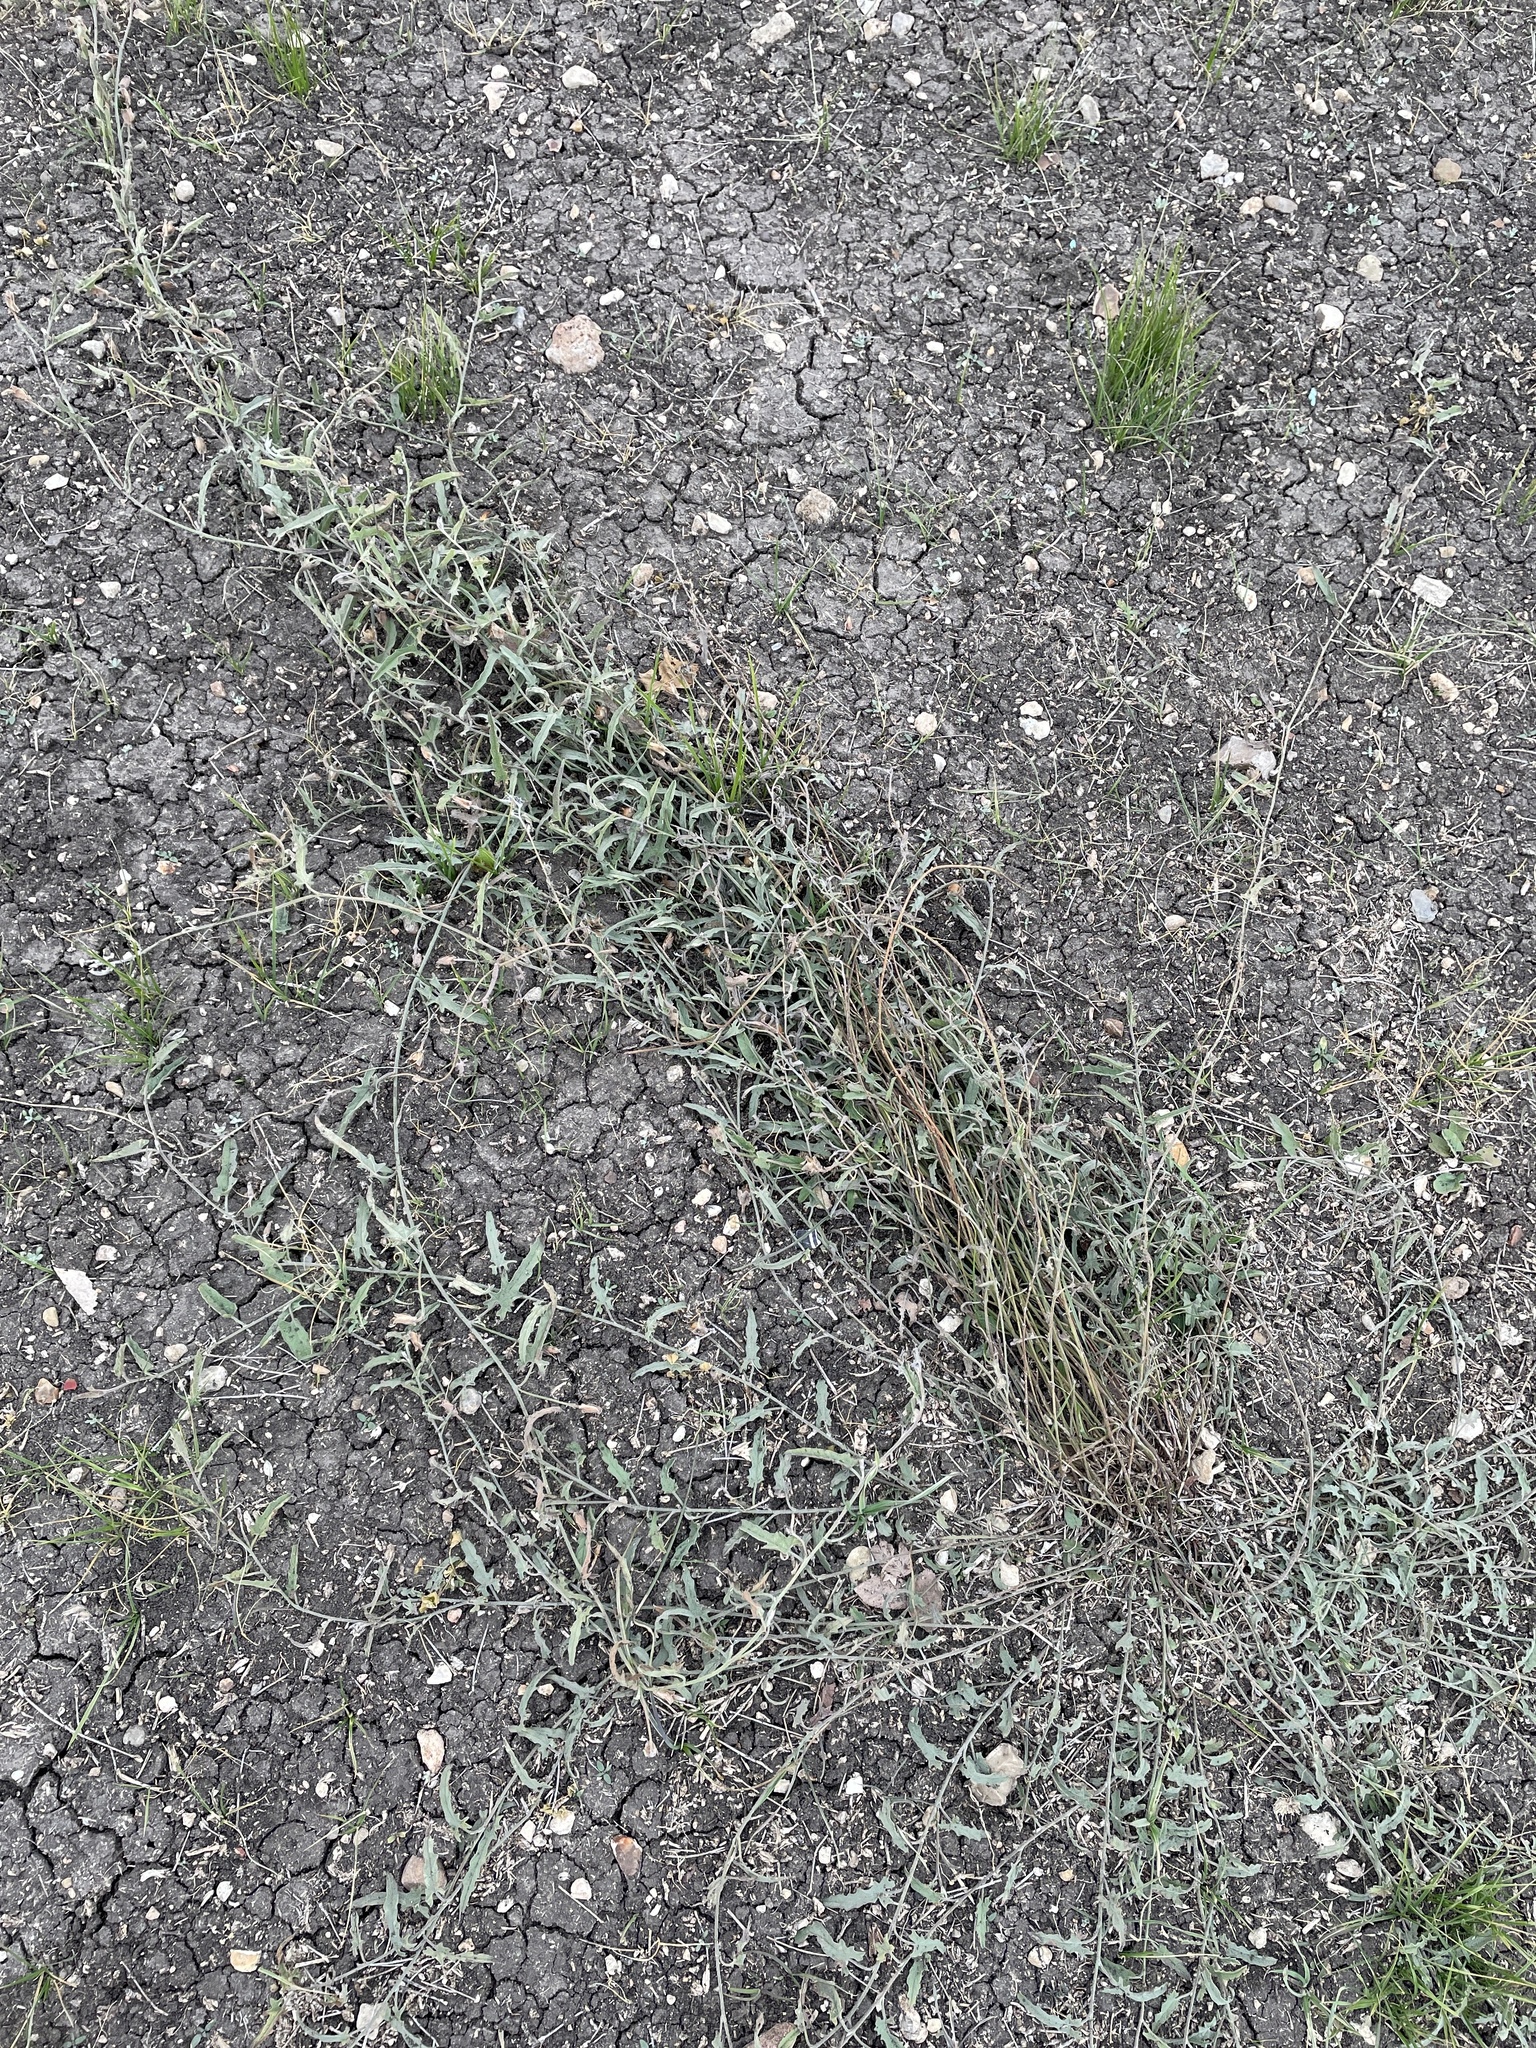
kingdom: Plantae
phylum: Tracheophyta
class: Magnoliopsida
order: Solanales
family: Convolvulaceae
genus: Convolvulus
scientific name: Convolvulus equitans
